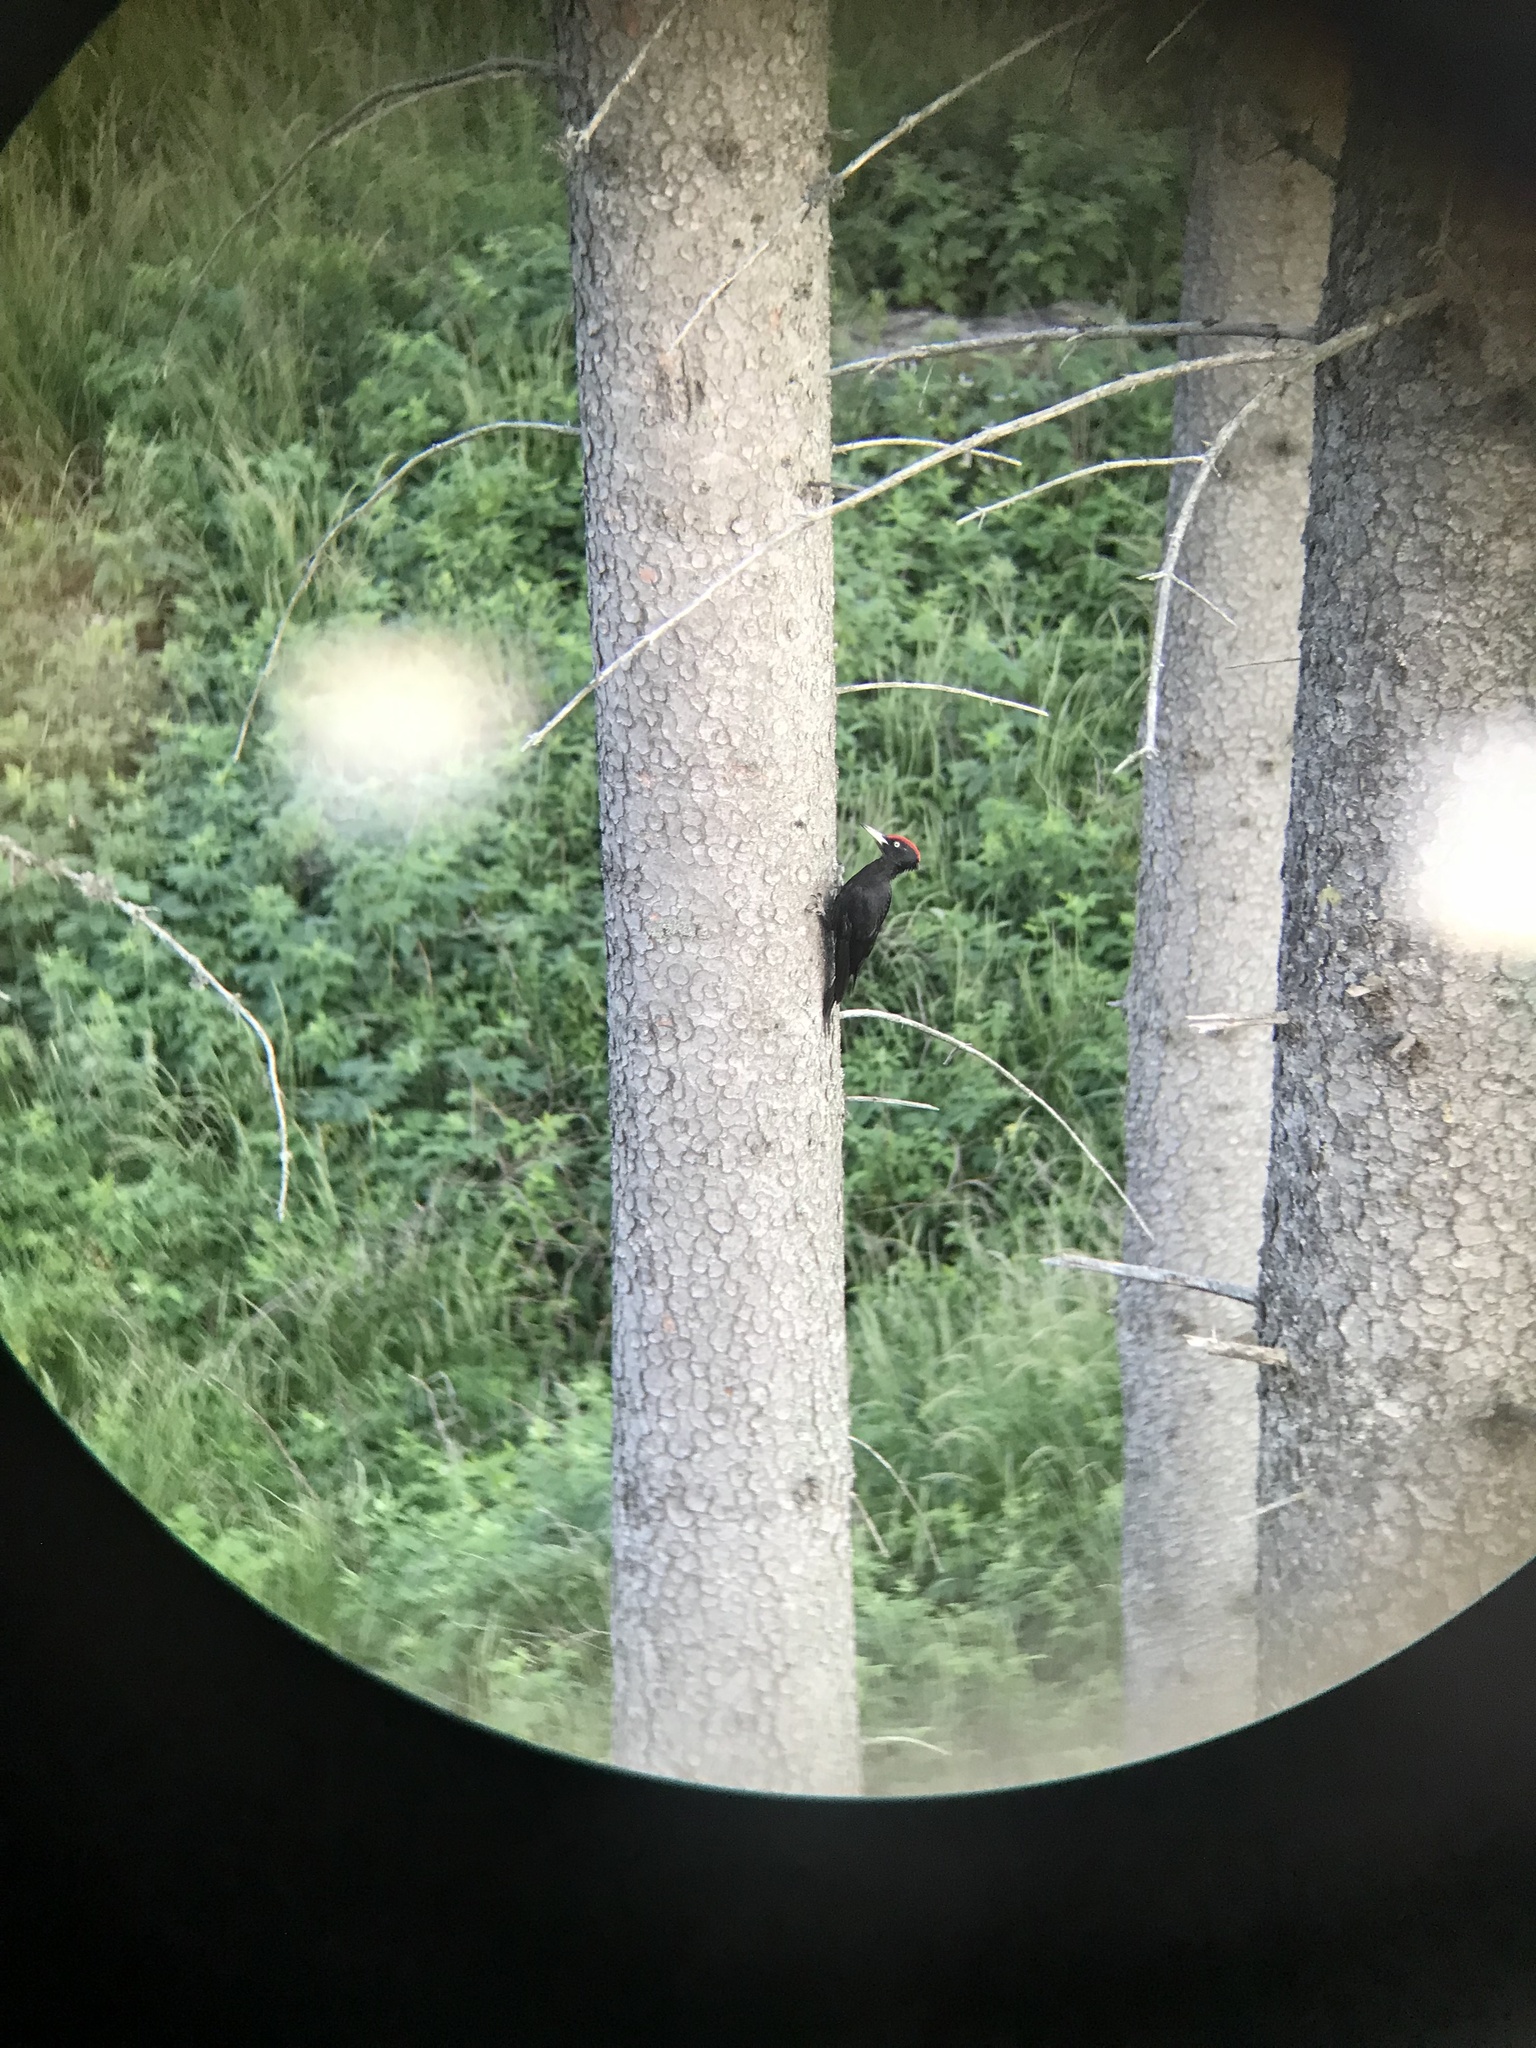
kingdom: Animalia
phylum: Chordata
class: Aves
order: Piciformes
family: Picidae
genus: Dryocopus
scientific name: Dryocopus martius
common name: Black woodpecker
